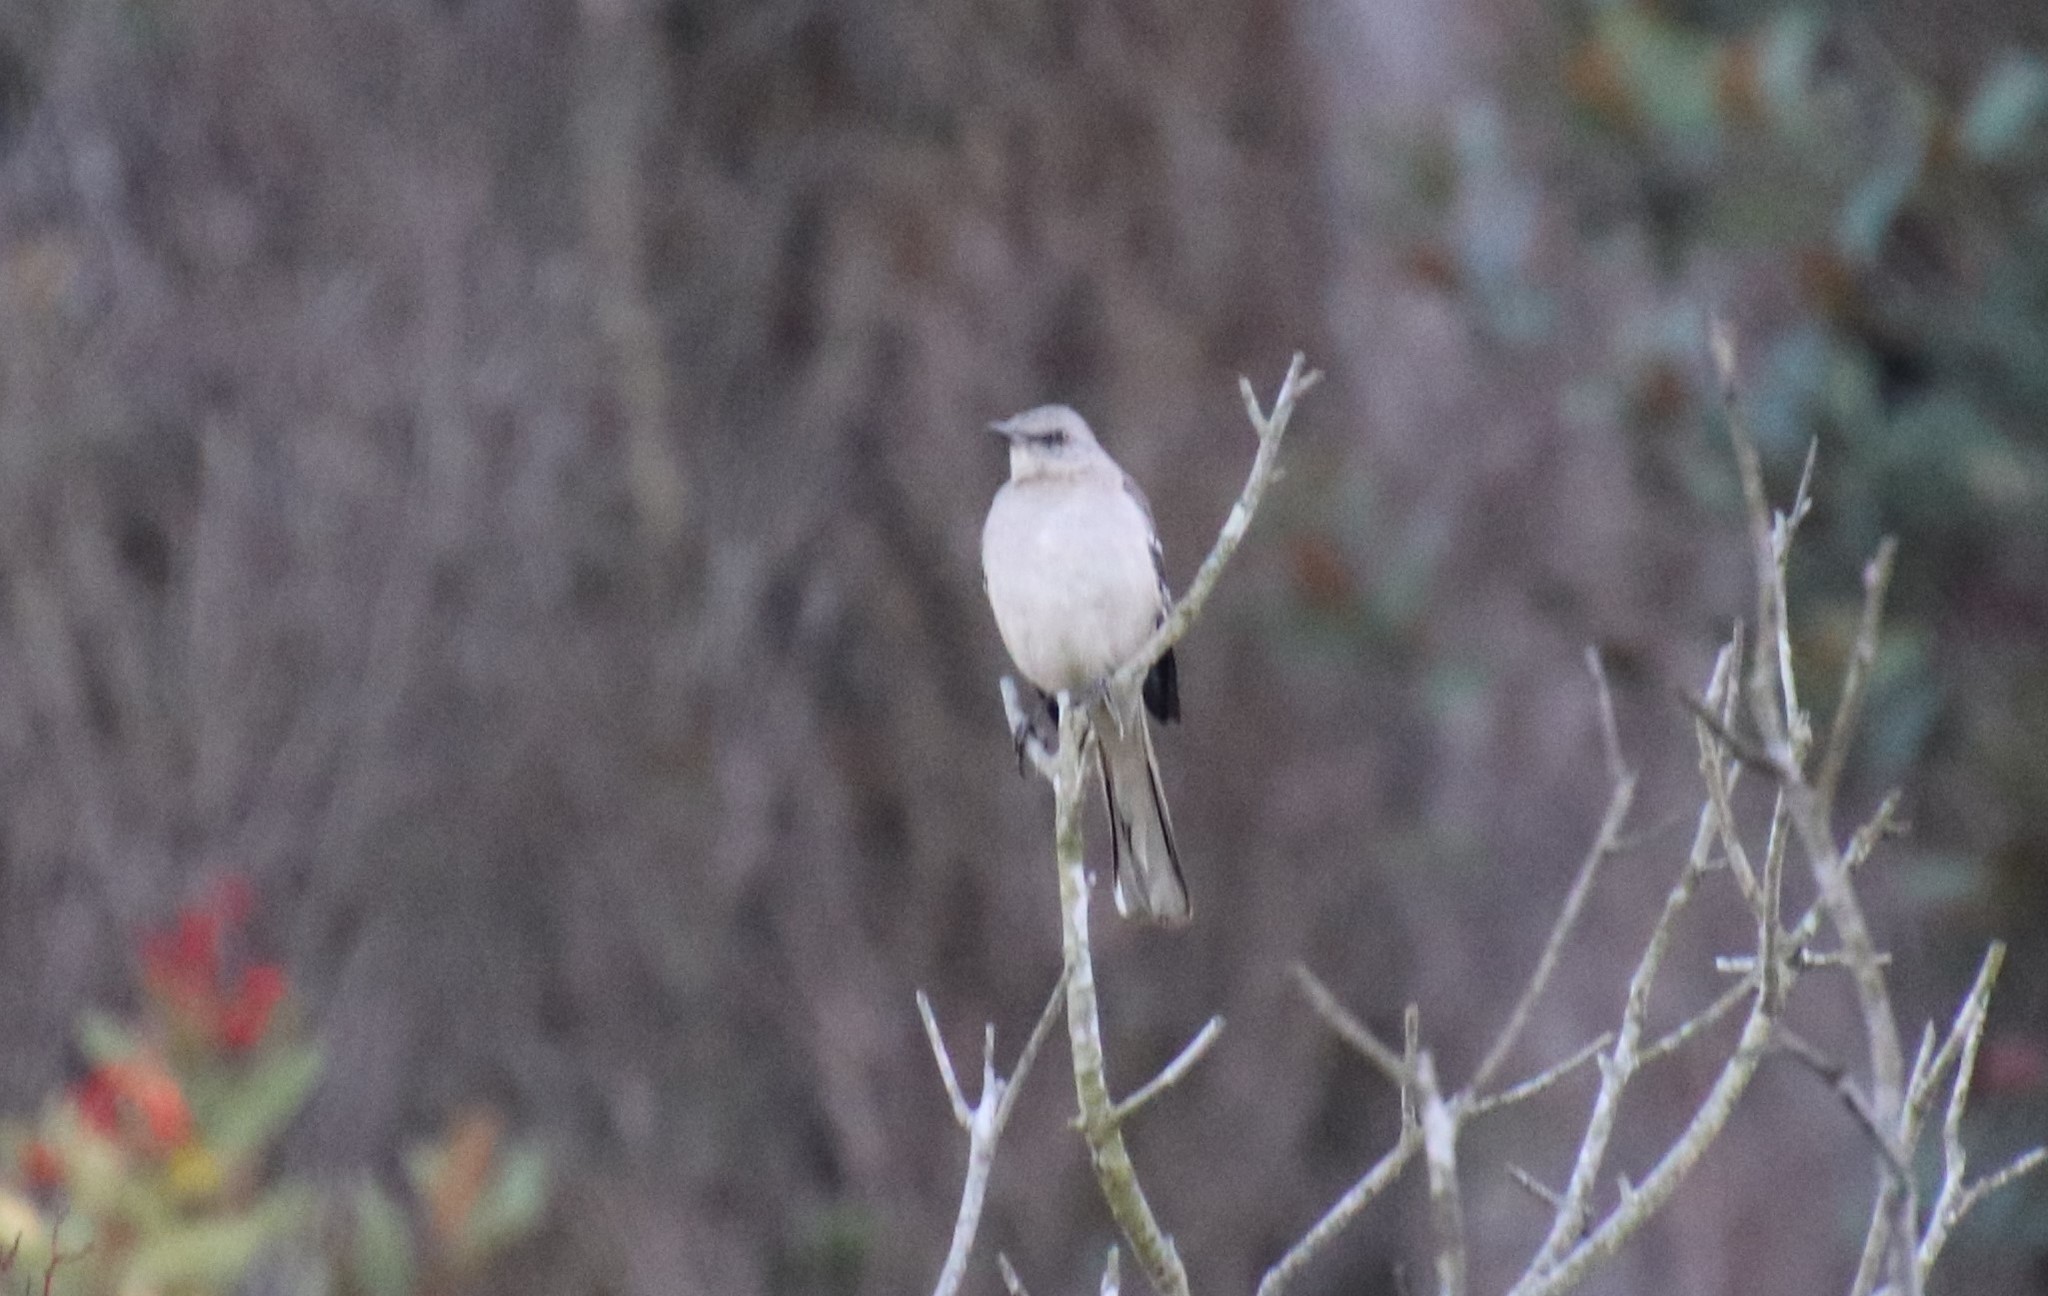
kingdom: Animalia
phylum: Chordata
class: Aves
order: Passeriformes
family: Mimidae
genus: Mimus
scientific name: Mimus polyglottos
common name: Northern mockingbird
